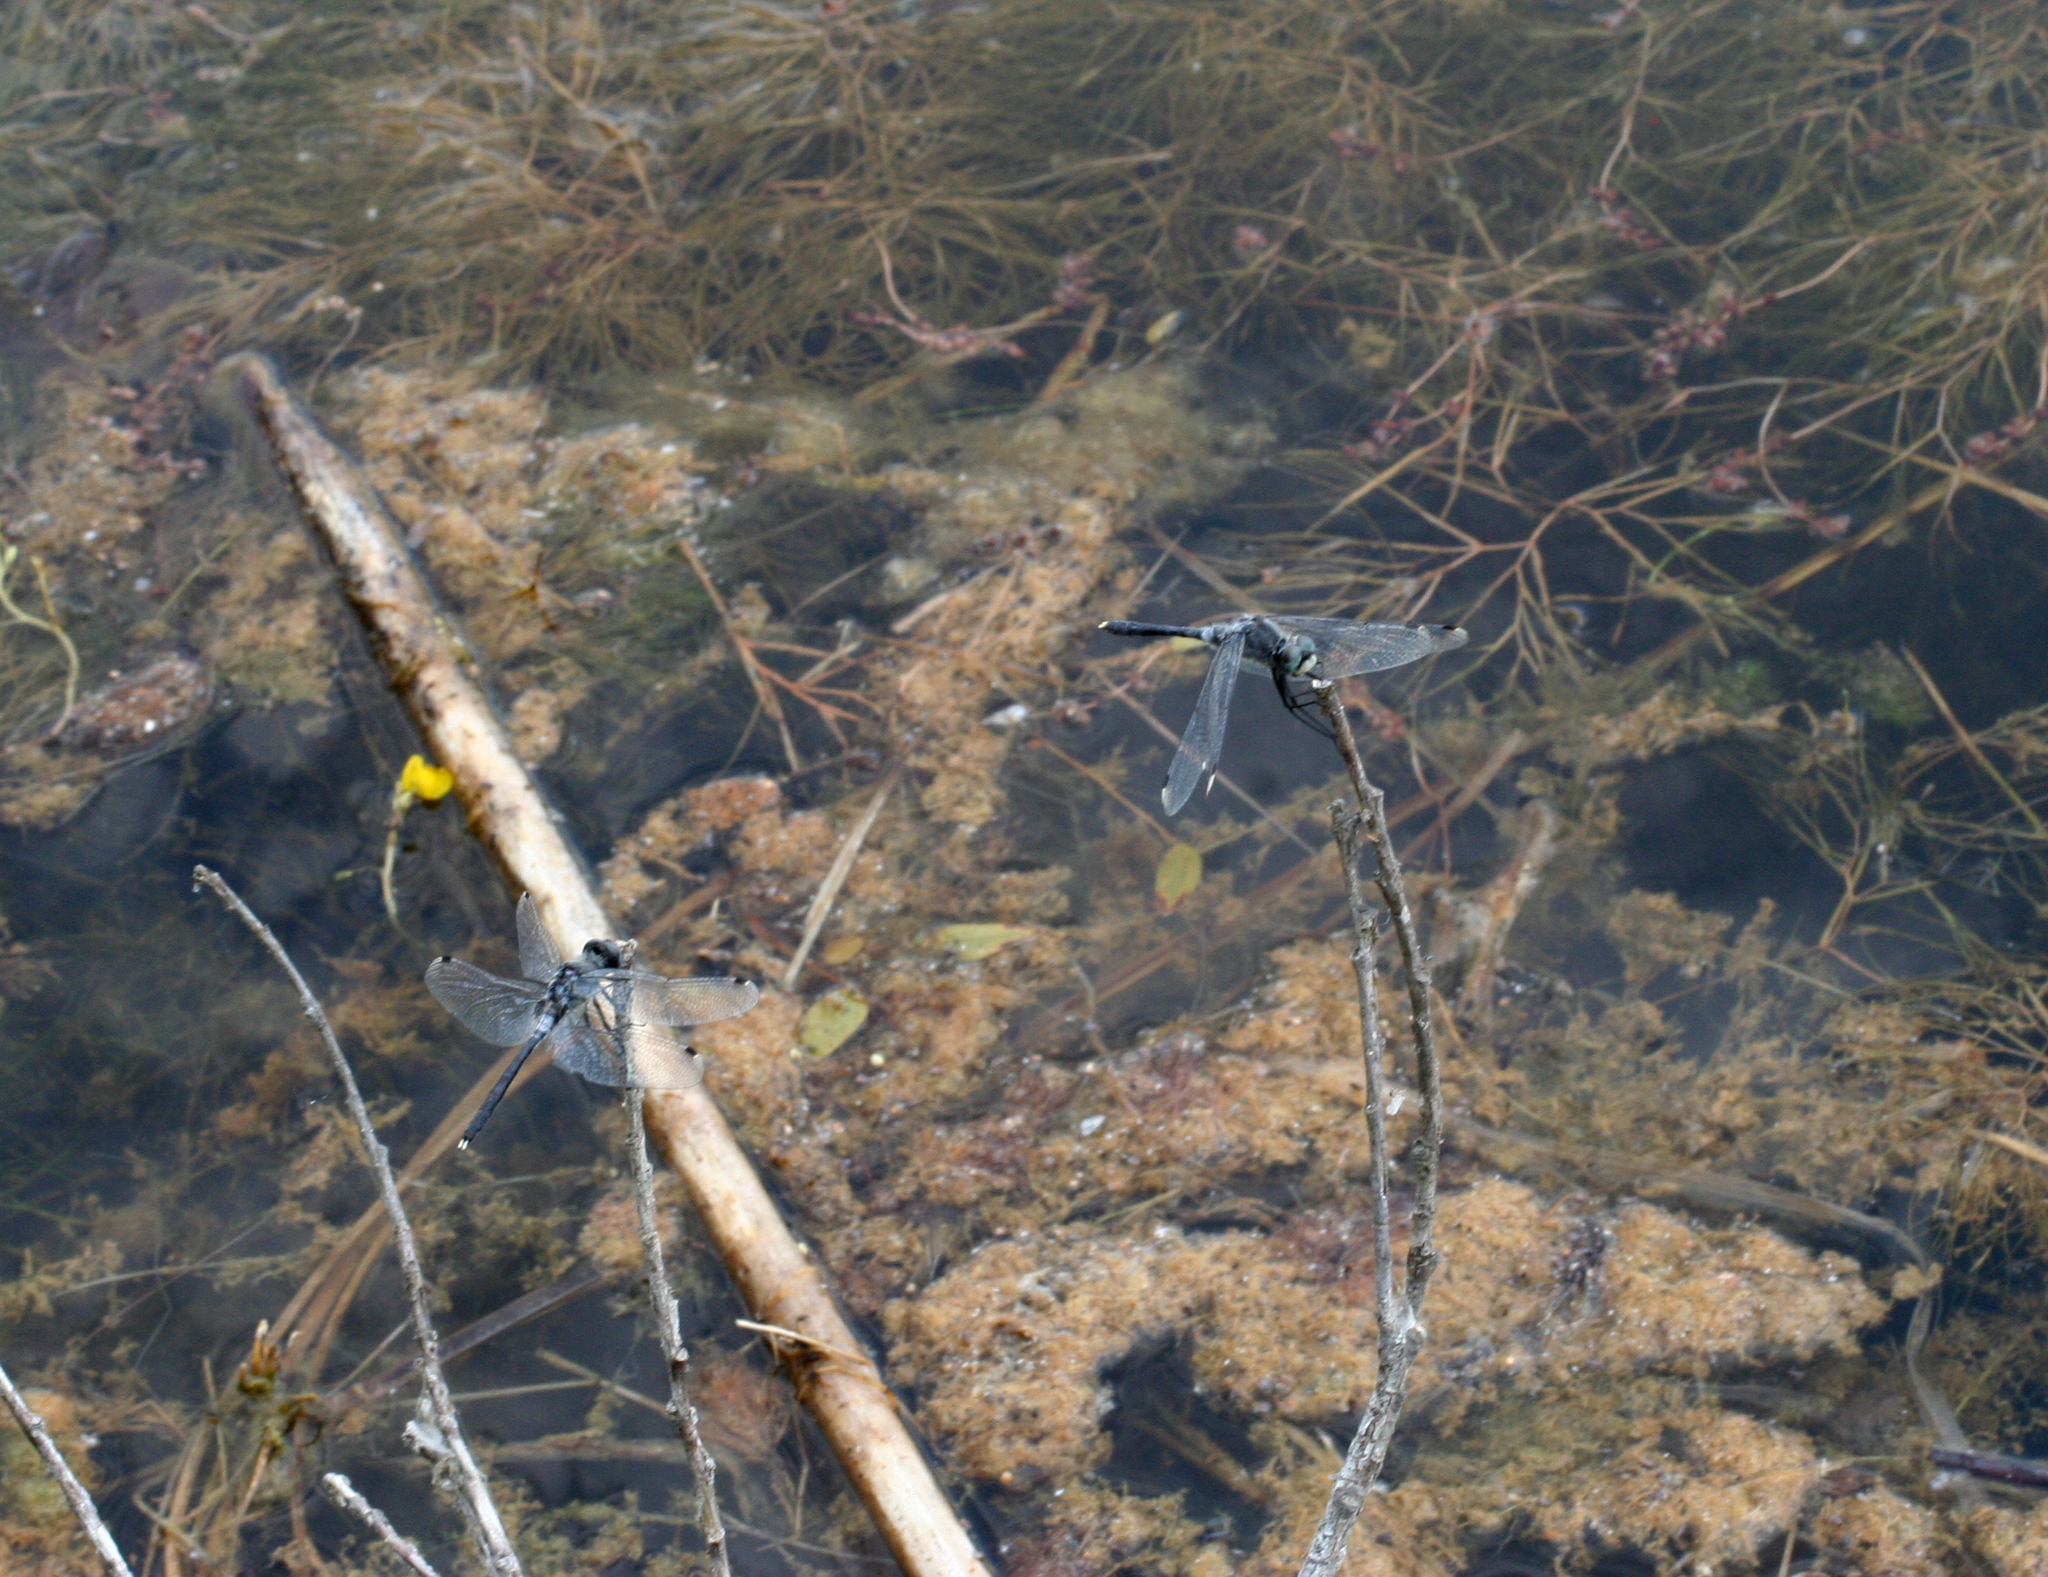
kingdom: Animalia
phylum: Arthropoda
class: Insecta
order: Odonata
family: Libellulidae
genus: Leucorrhinia
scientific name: Leucorrhinia albifrons
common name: Dark whiteface
